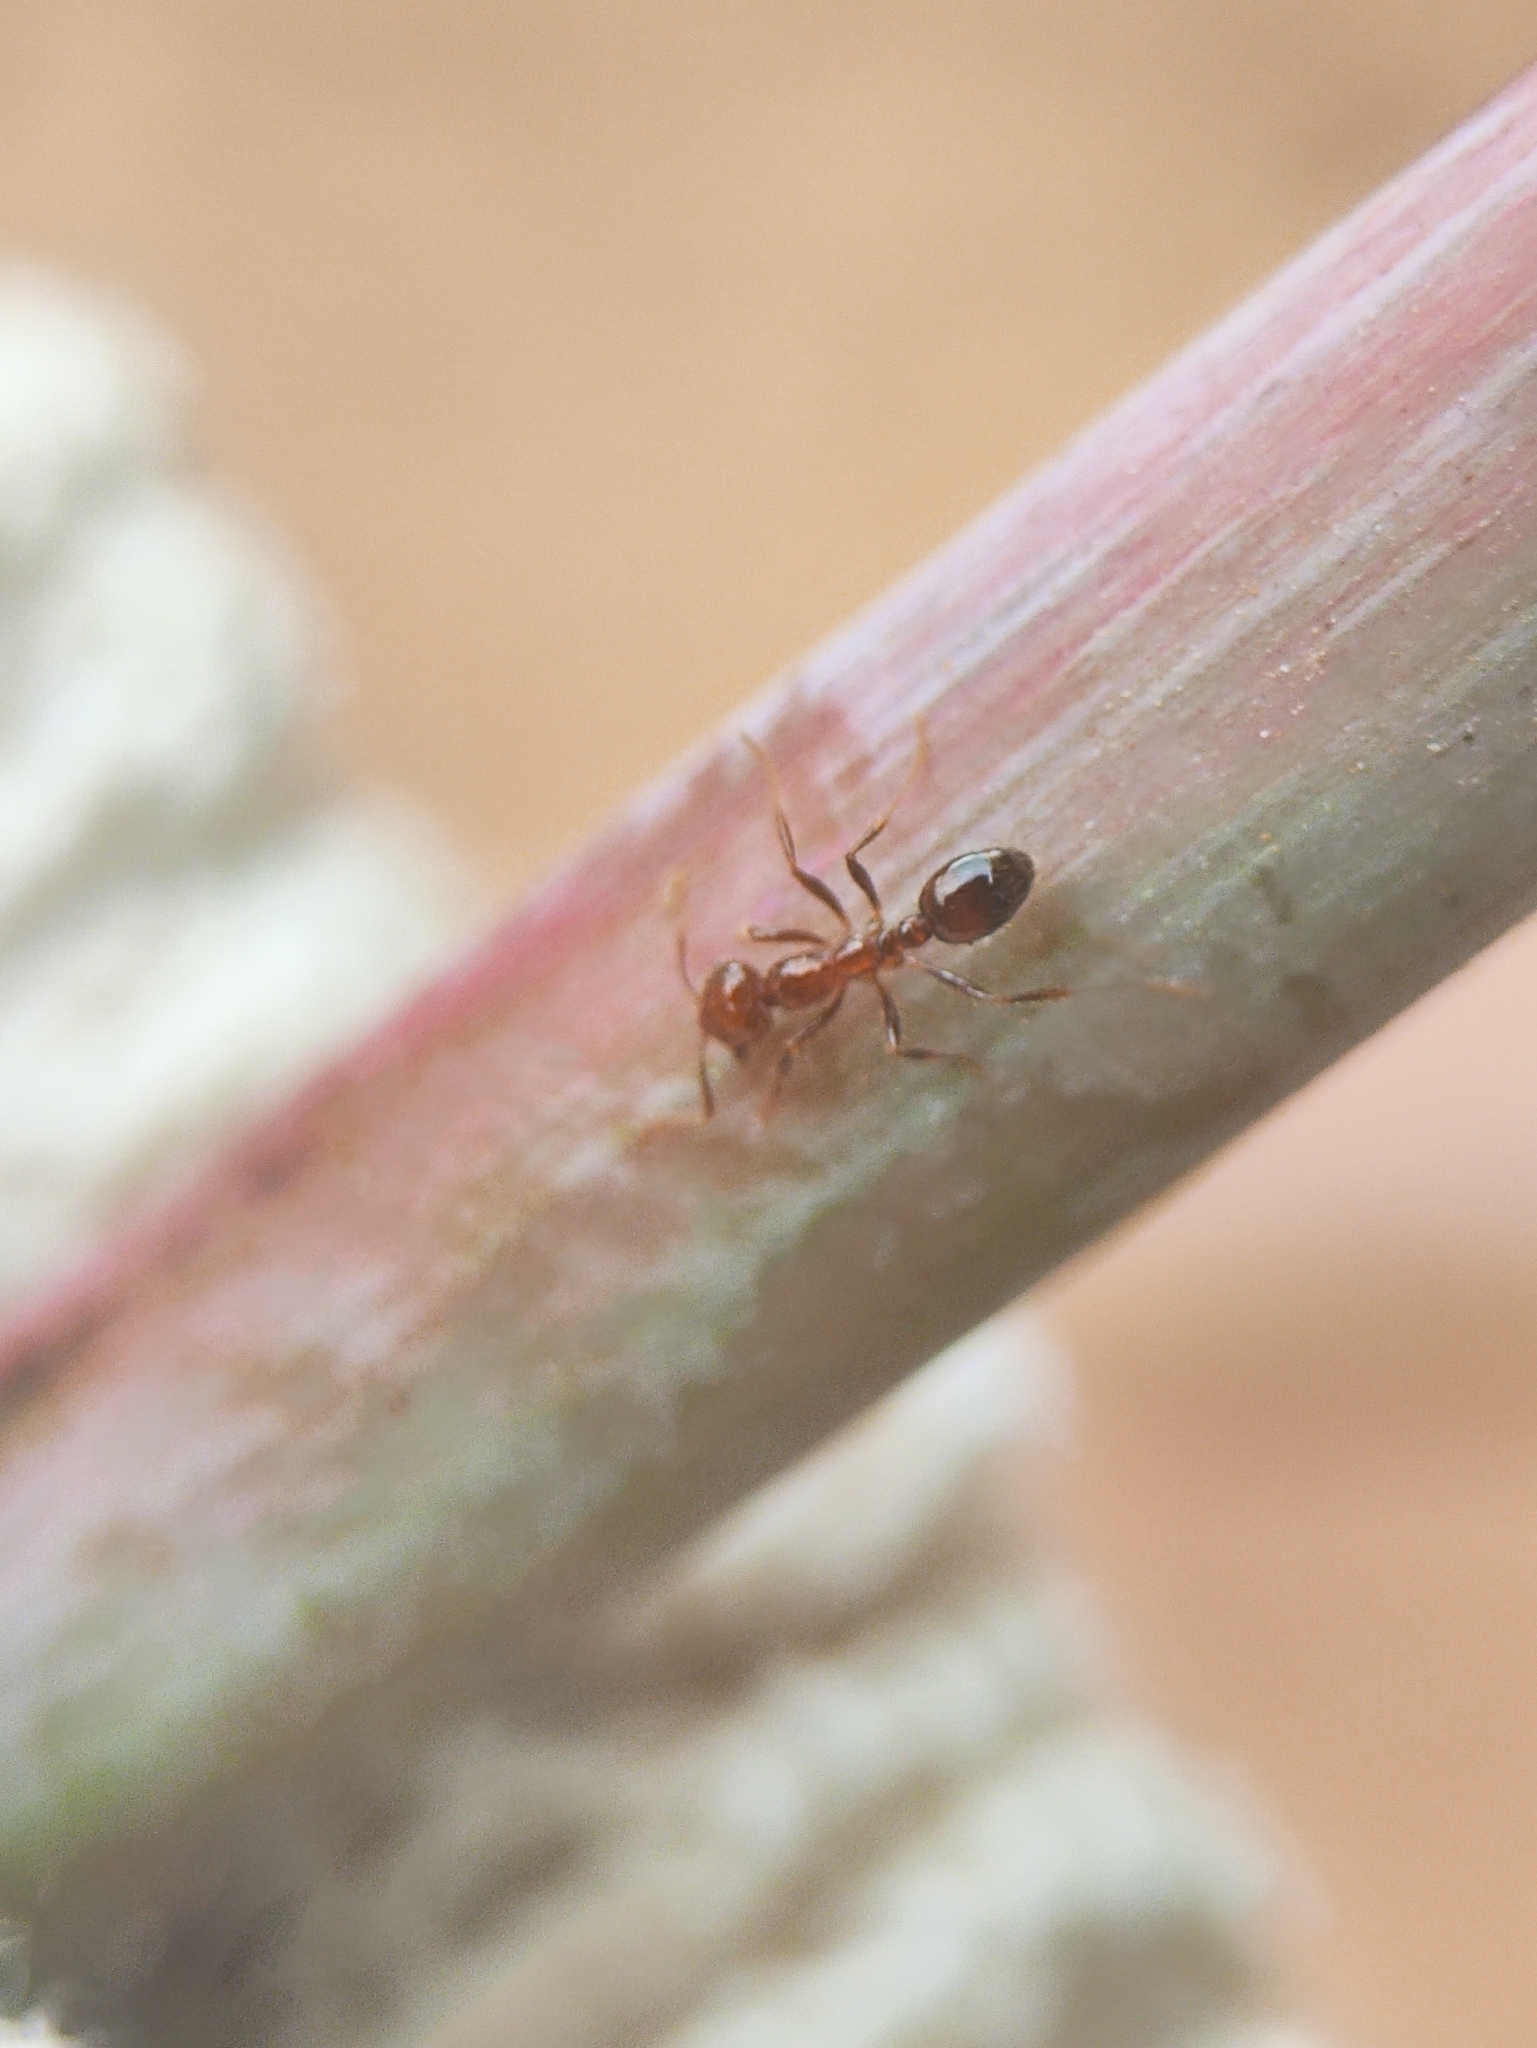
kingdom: Animalia
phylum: Arthropoda
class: Insecta
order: Hymenoptera
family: Formicidae
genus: Solenopsis
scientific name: Solenopsis geminata
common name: Tropical fire ant
